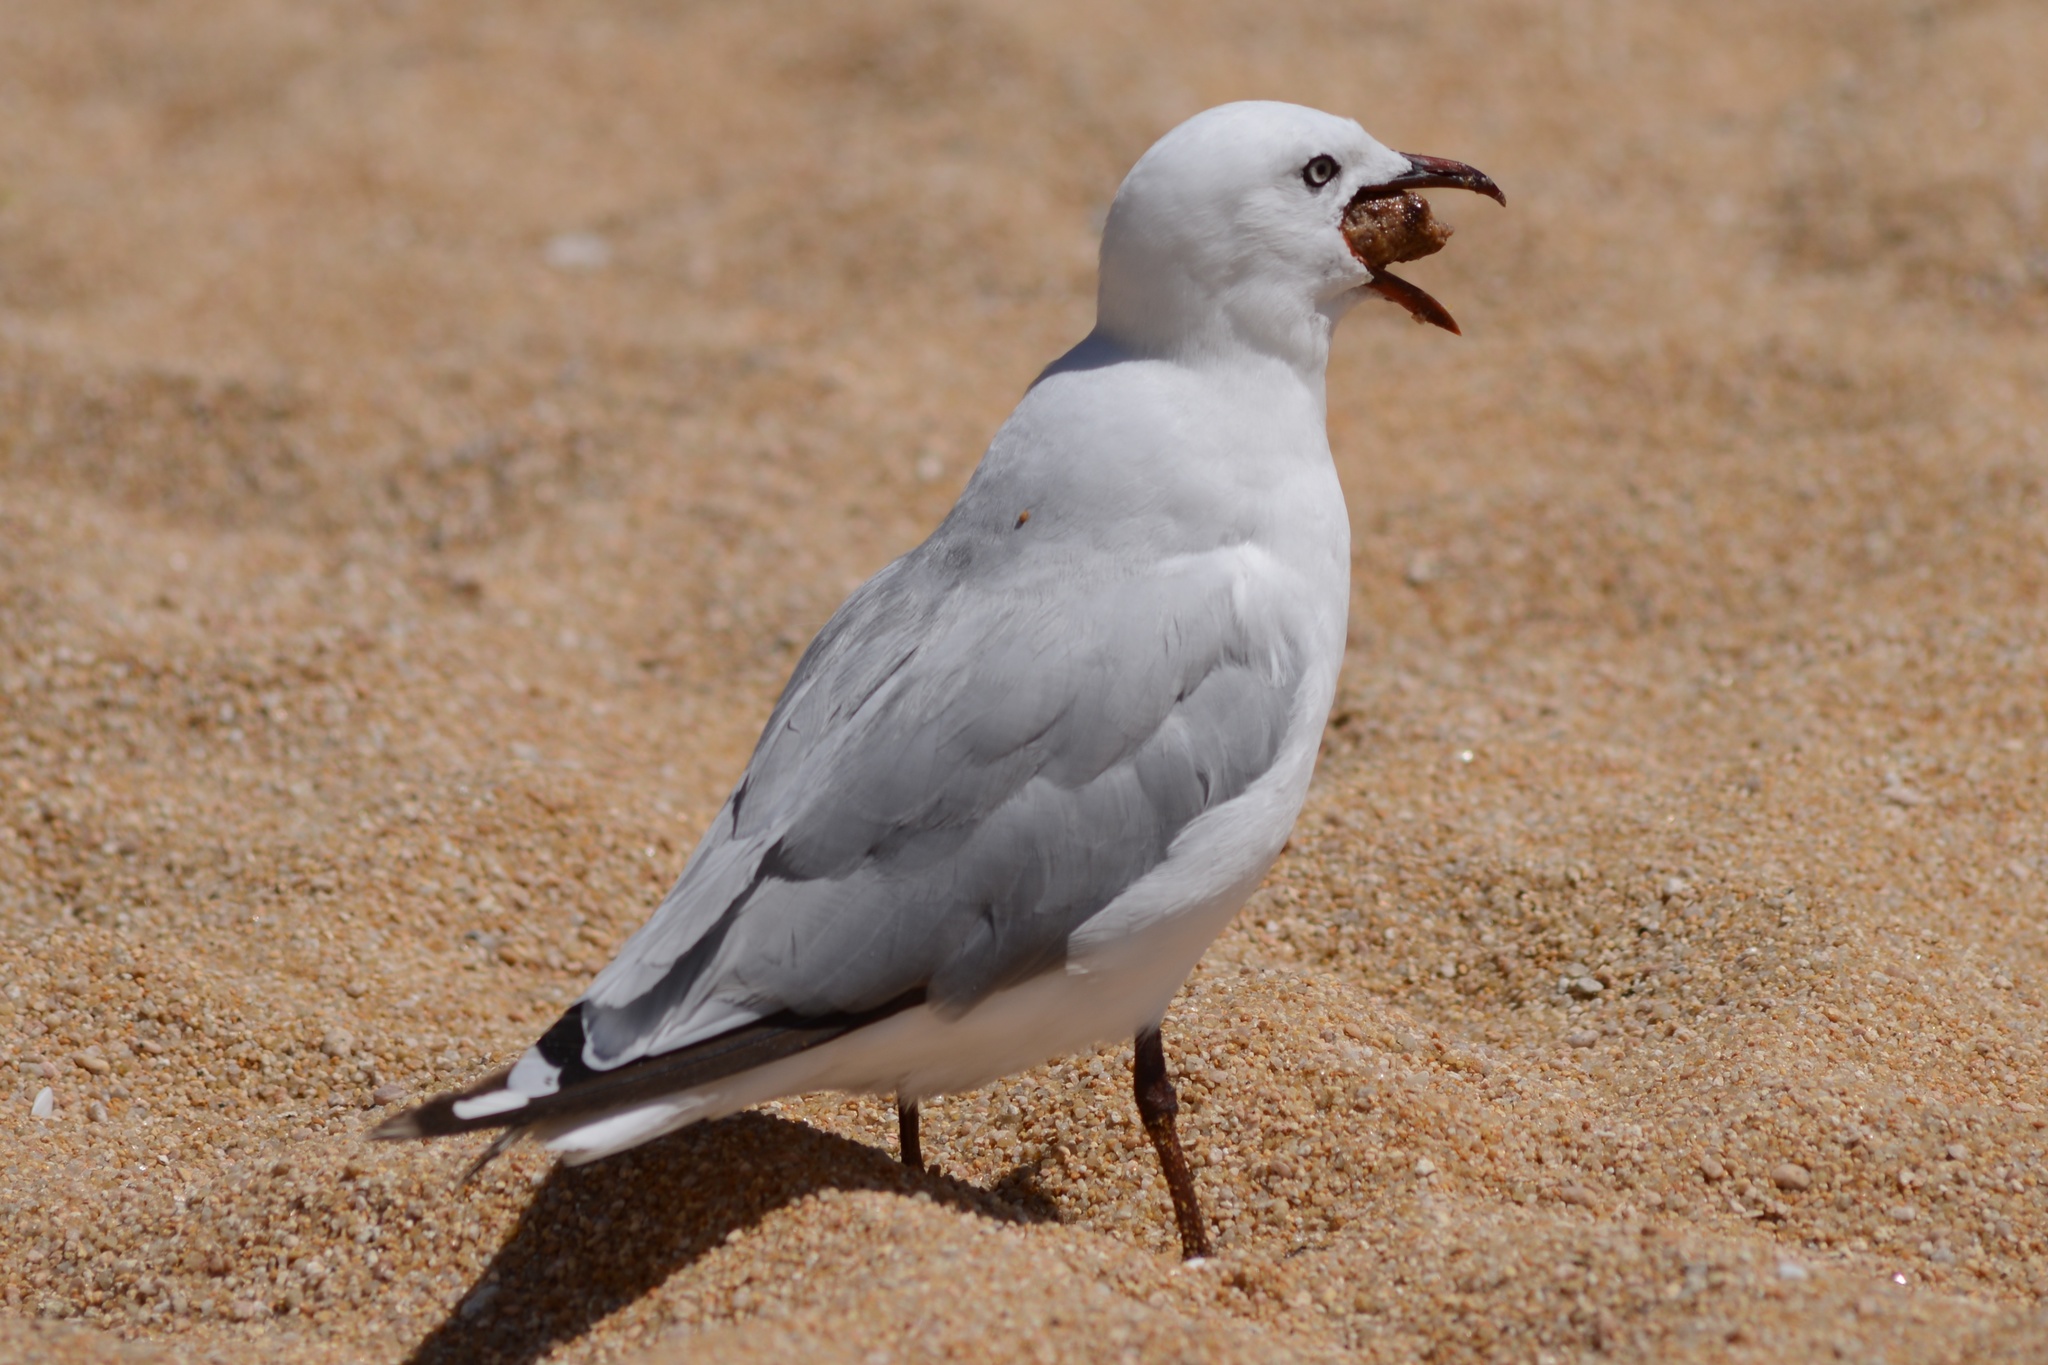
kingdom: Animalia
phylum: Chordata
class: Aves
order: Charadriiformes
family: Laridae
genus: Chroicocephalus
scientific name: Chroicocephalus novaehollandiae
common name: Silver gull
